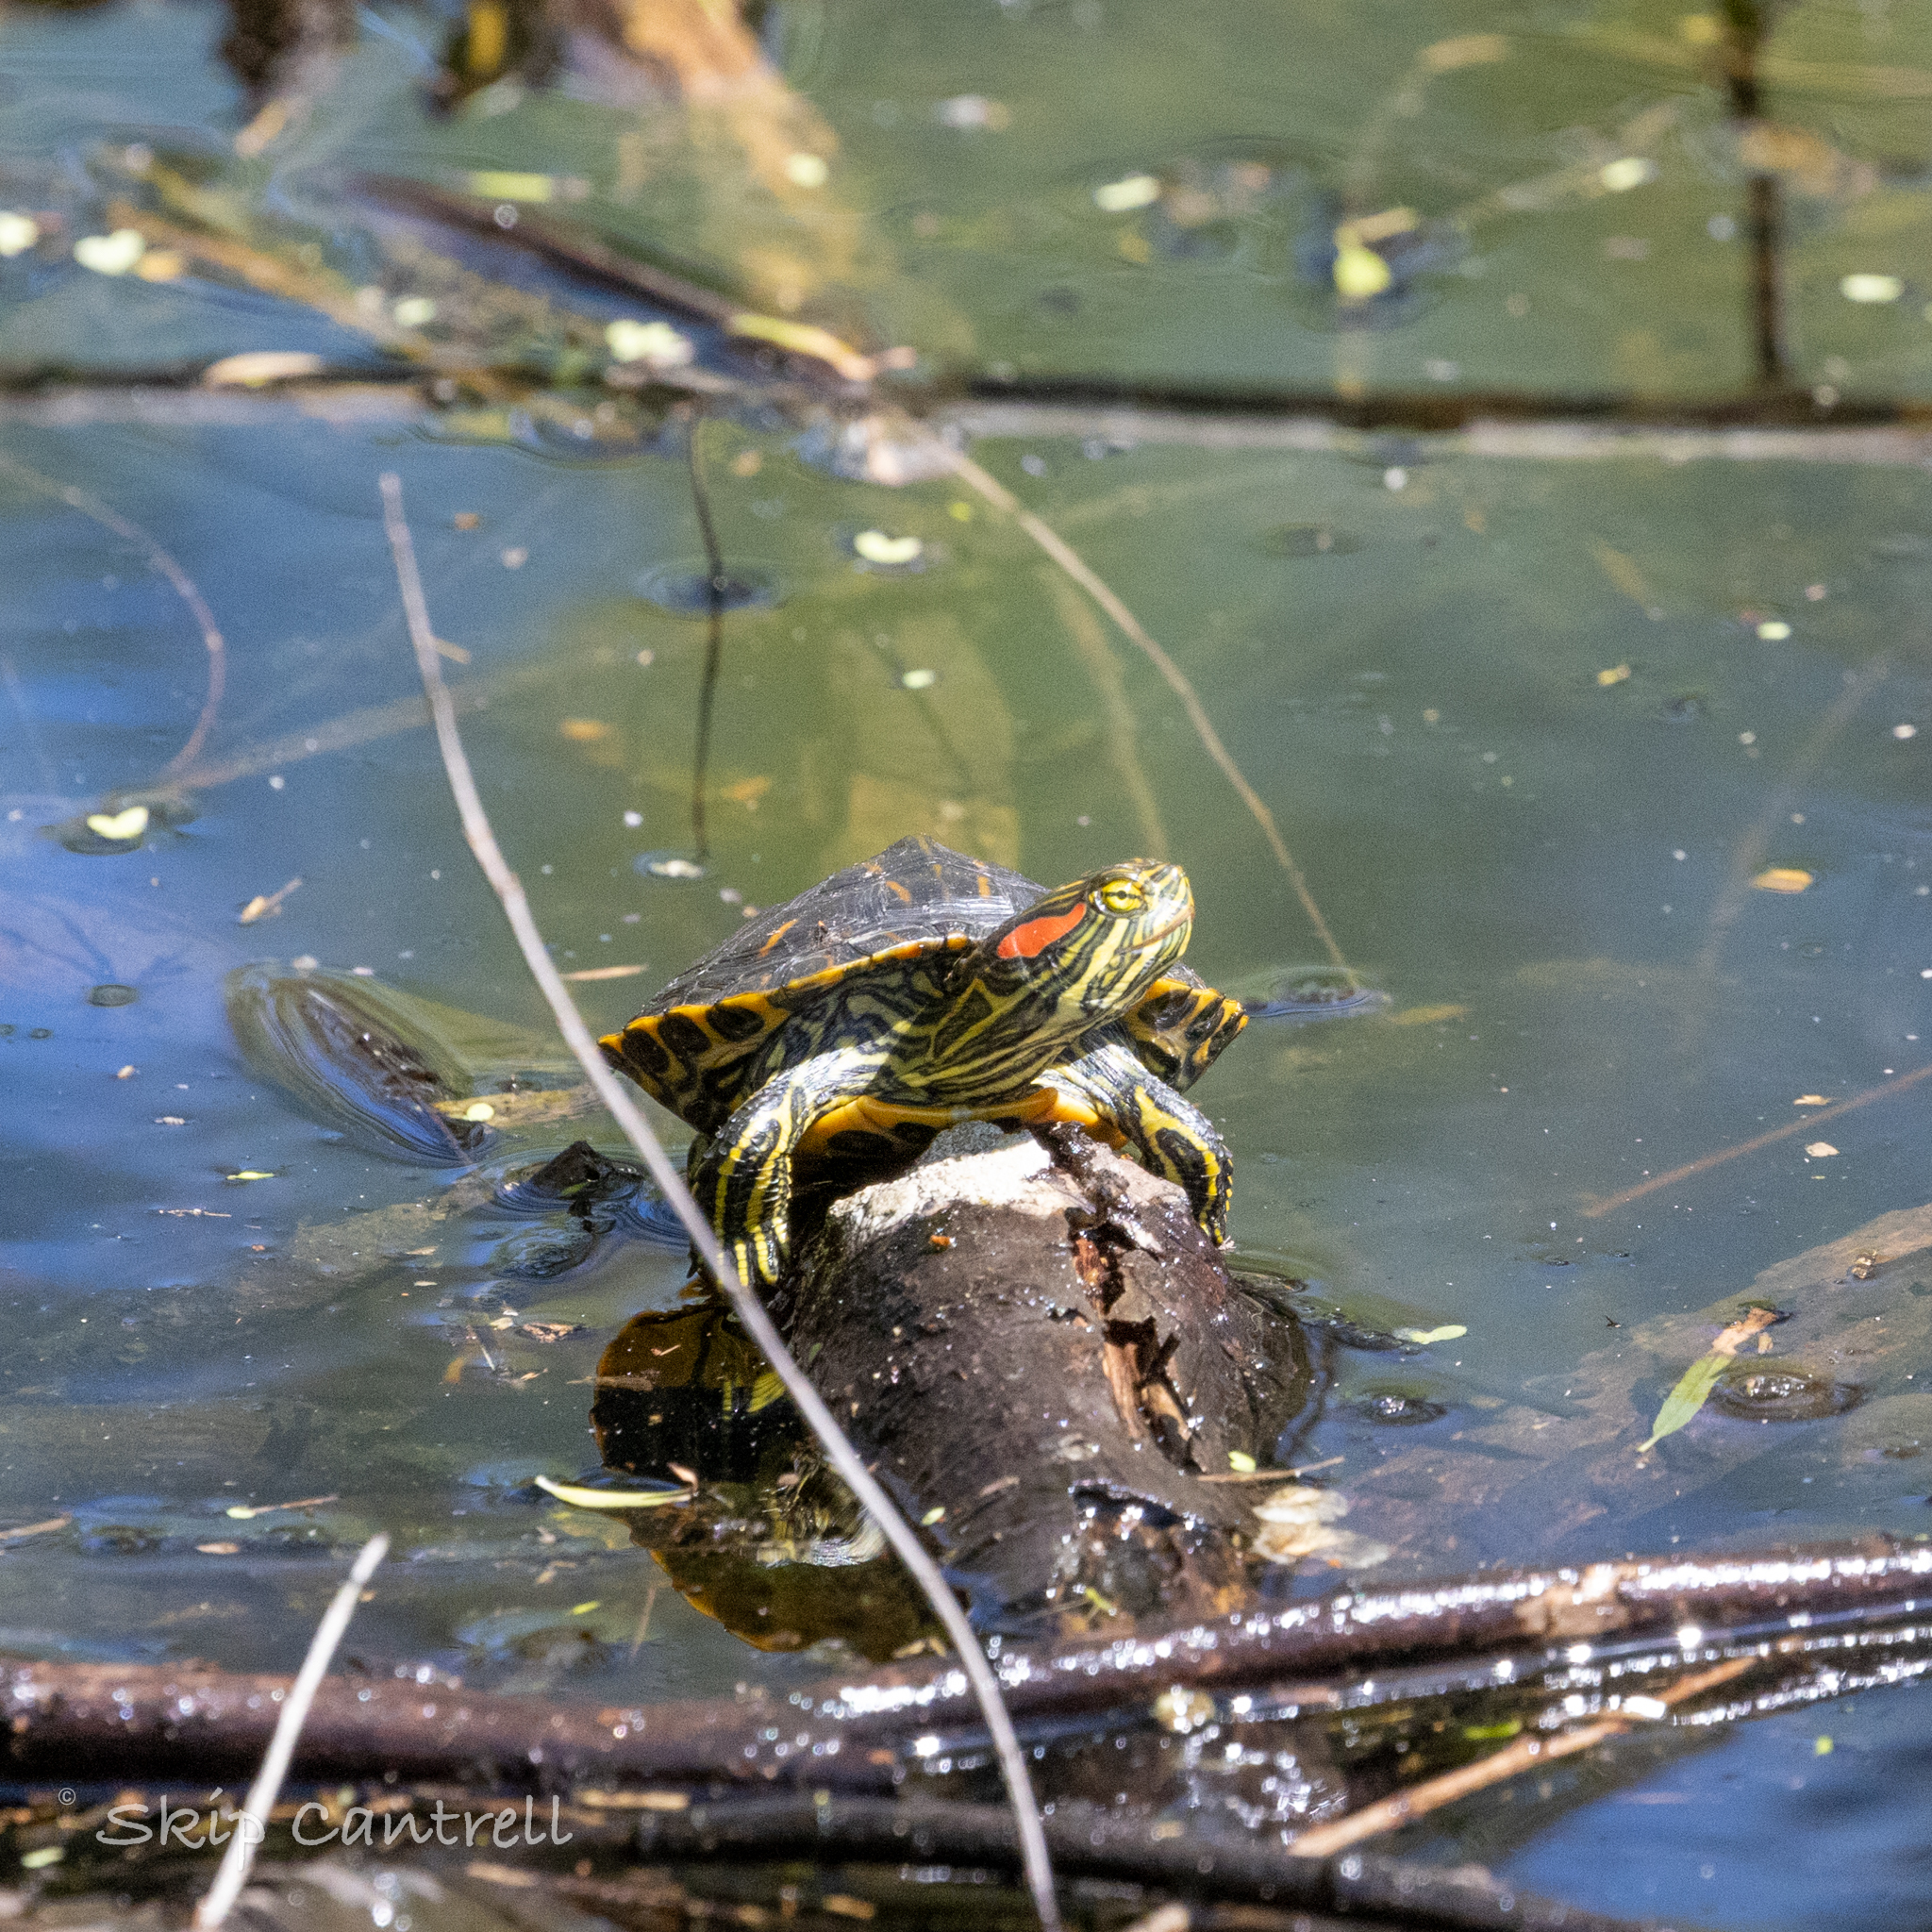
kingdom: Animalia
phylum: Chordata
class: Testudines
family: Emydidae
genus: Trachemys
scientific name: Trachemys scripta
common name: Slider
